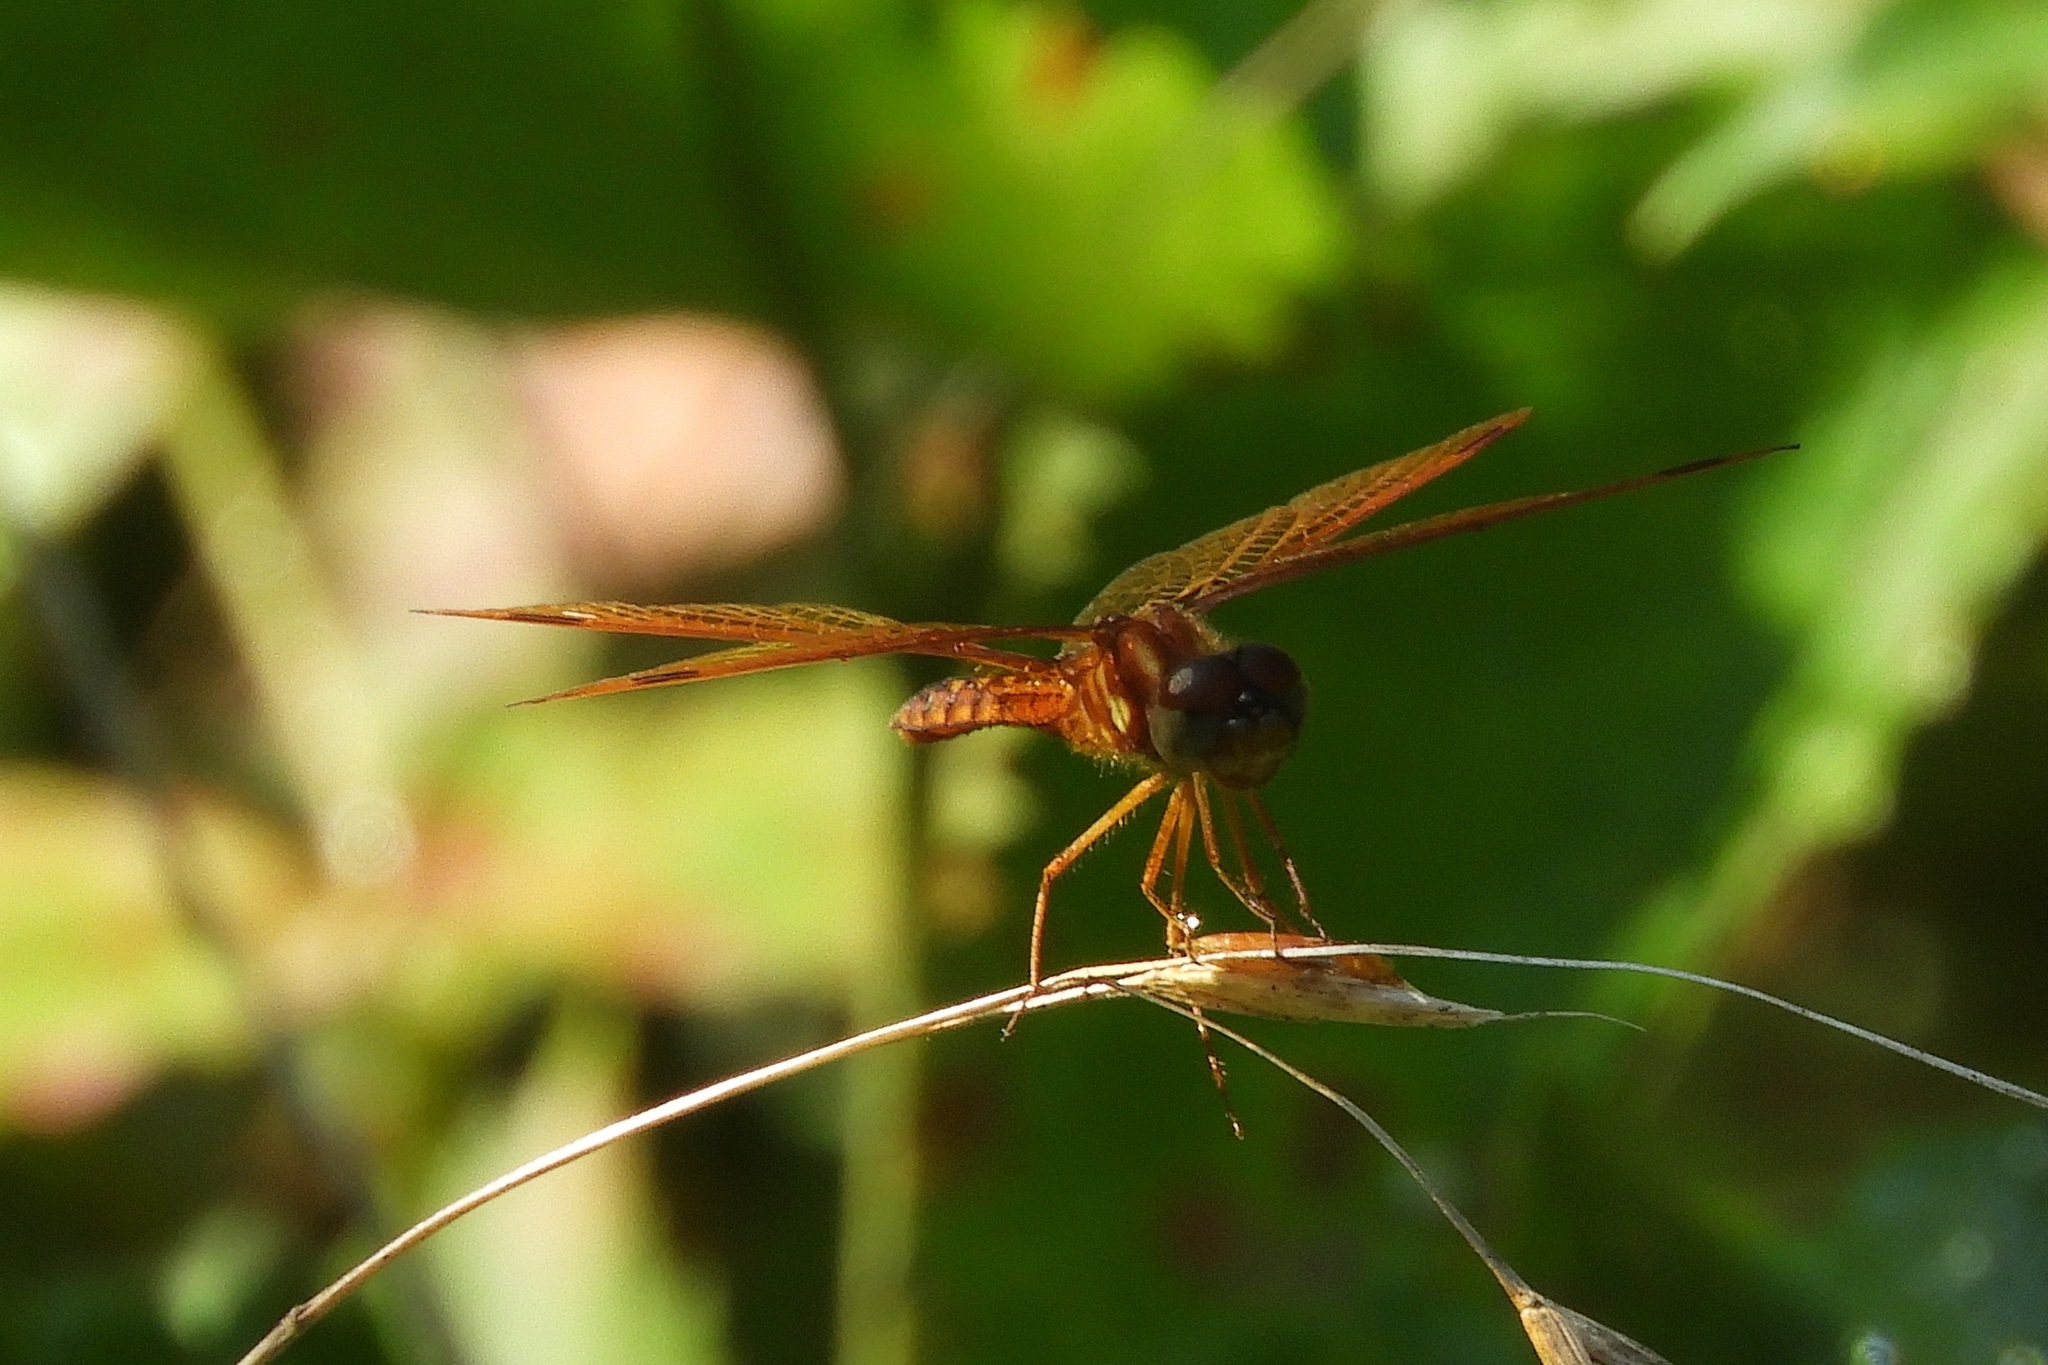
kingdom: Animalia
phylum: Arthropoda
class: Insecta
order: Odonata
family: Libellulidae
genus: Perithemis
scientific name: Perithemis tenera
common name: Eastern amberwing
